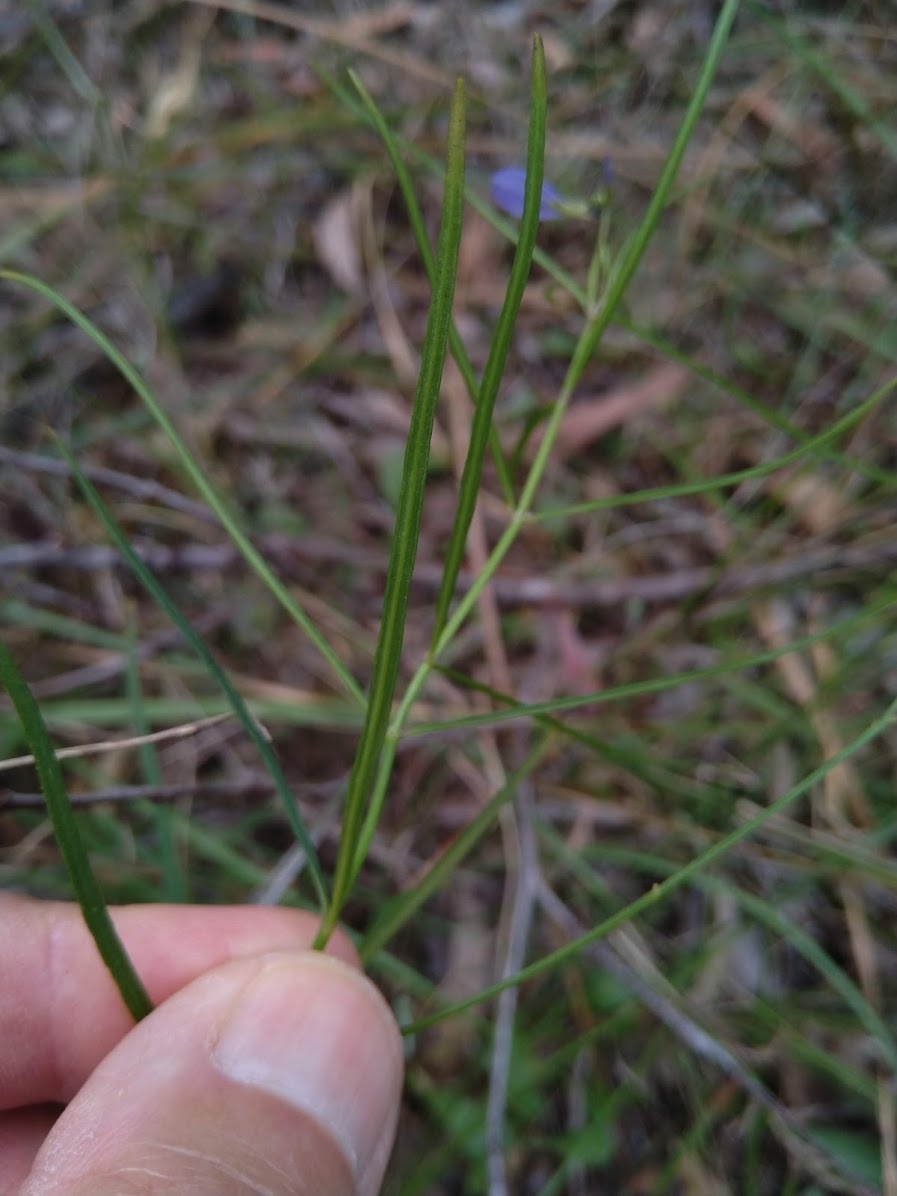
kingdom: Plantae
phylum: Tracheophyta
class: Magnoliopsida
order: Malpighiales
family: Violaceae
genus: Pigea
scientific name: Pigea monopetala
